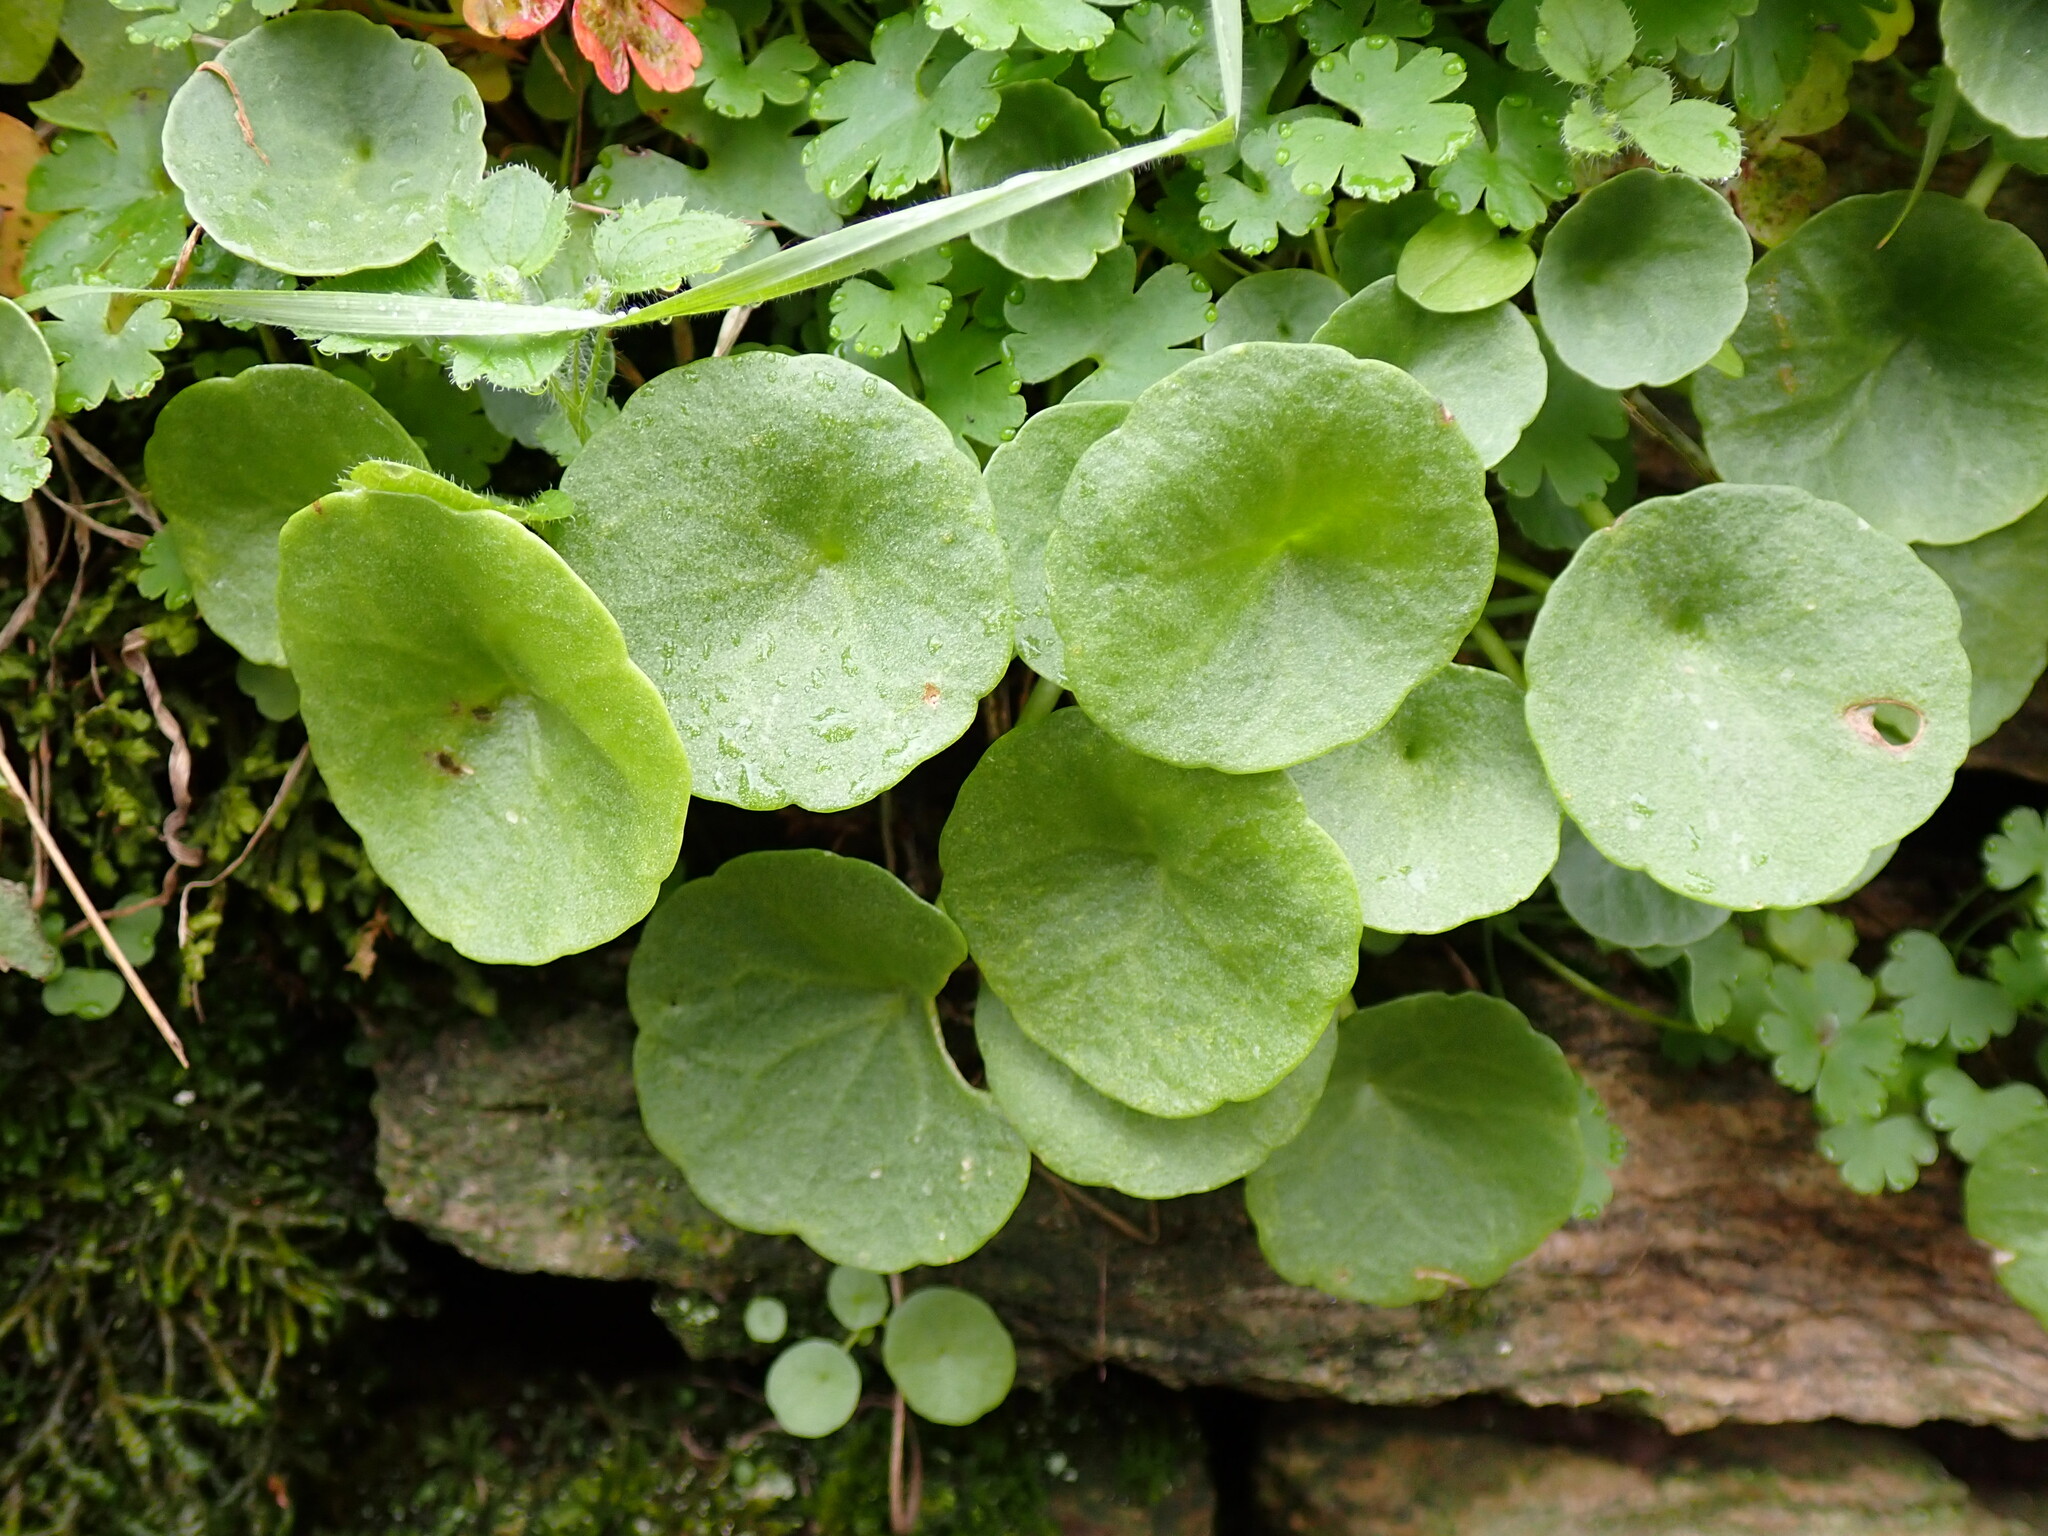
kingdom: Plantae
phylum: Tracheophyta
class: Magnoliopsida
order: Saxifragales
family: Crassulaceae
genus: Umbilicus
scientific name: Umbilicus rupestris
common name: Navelwort
